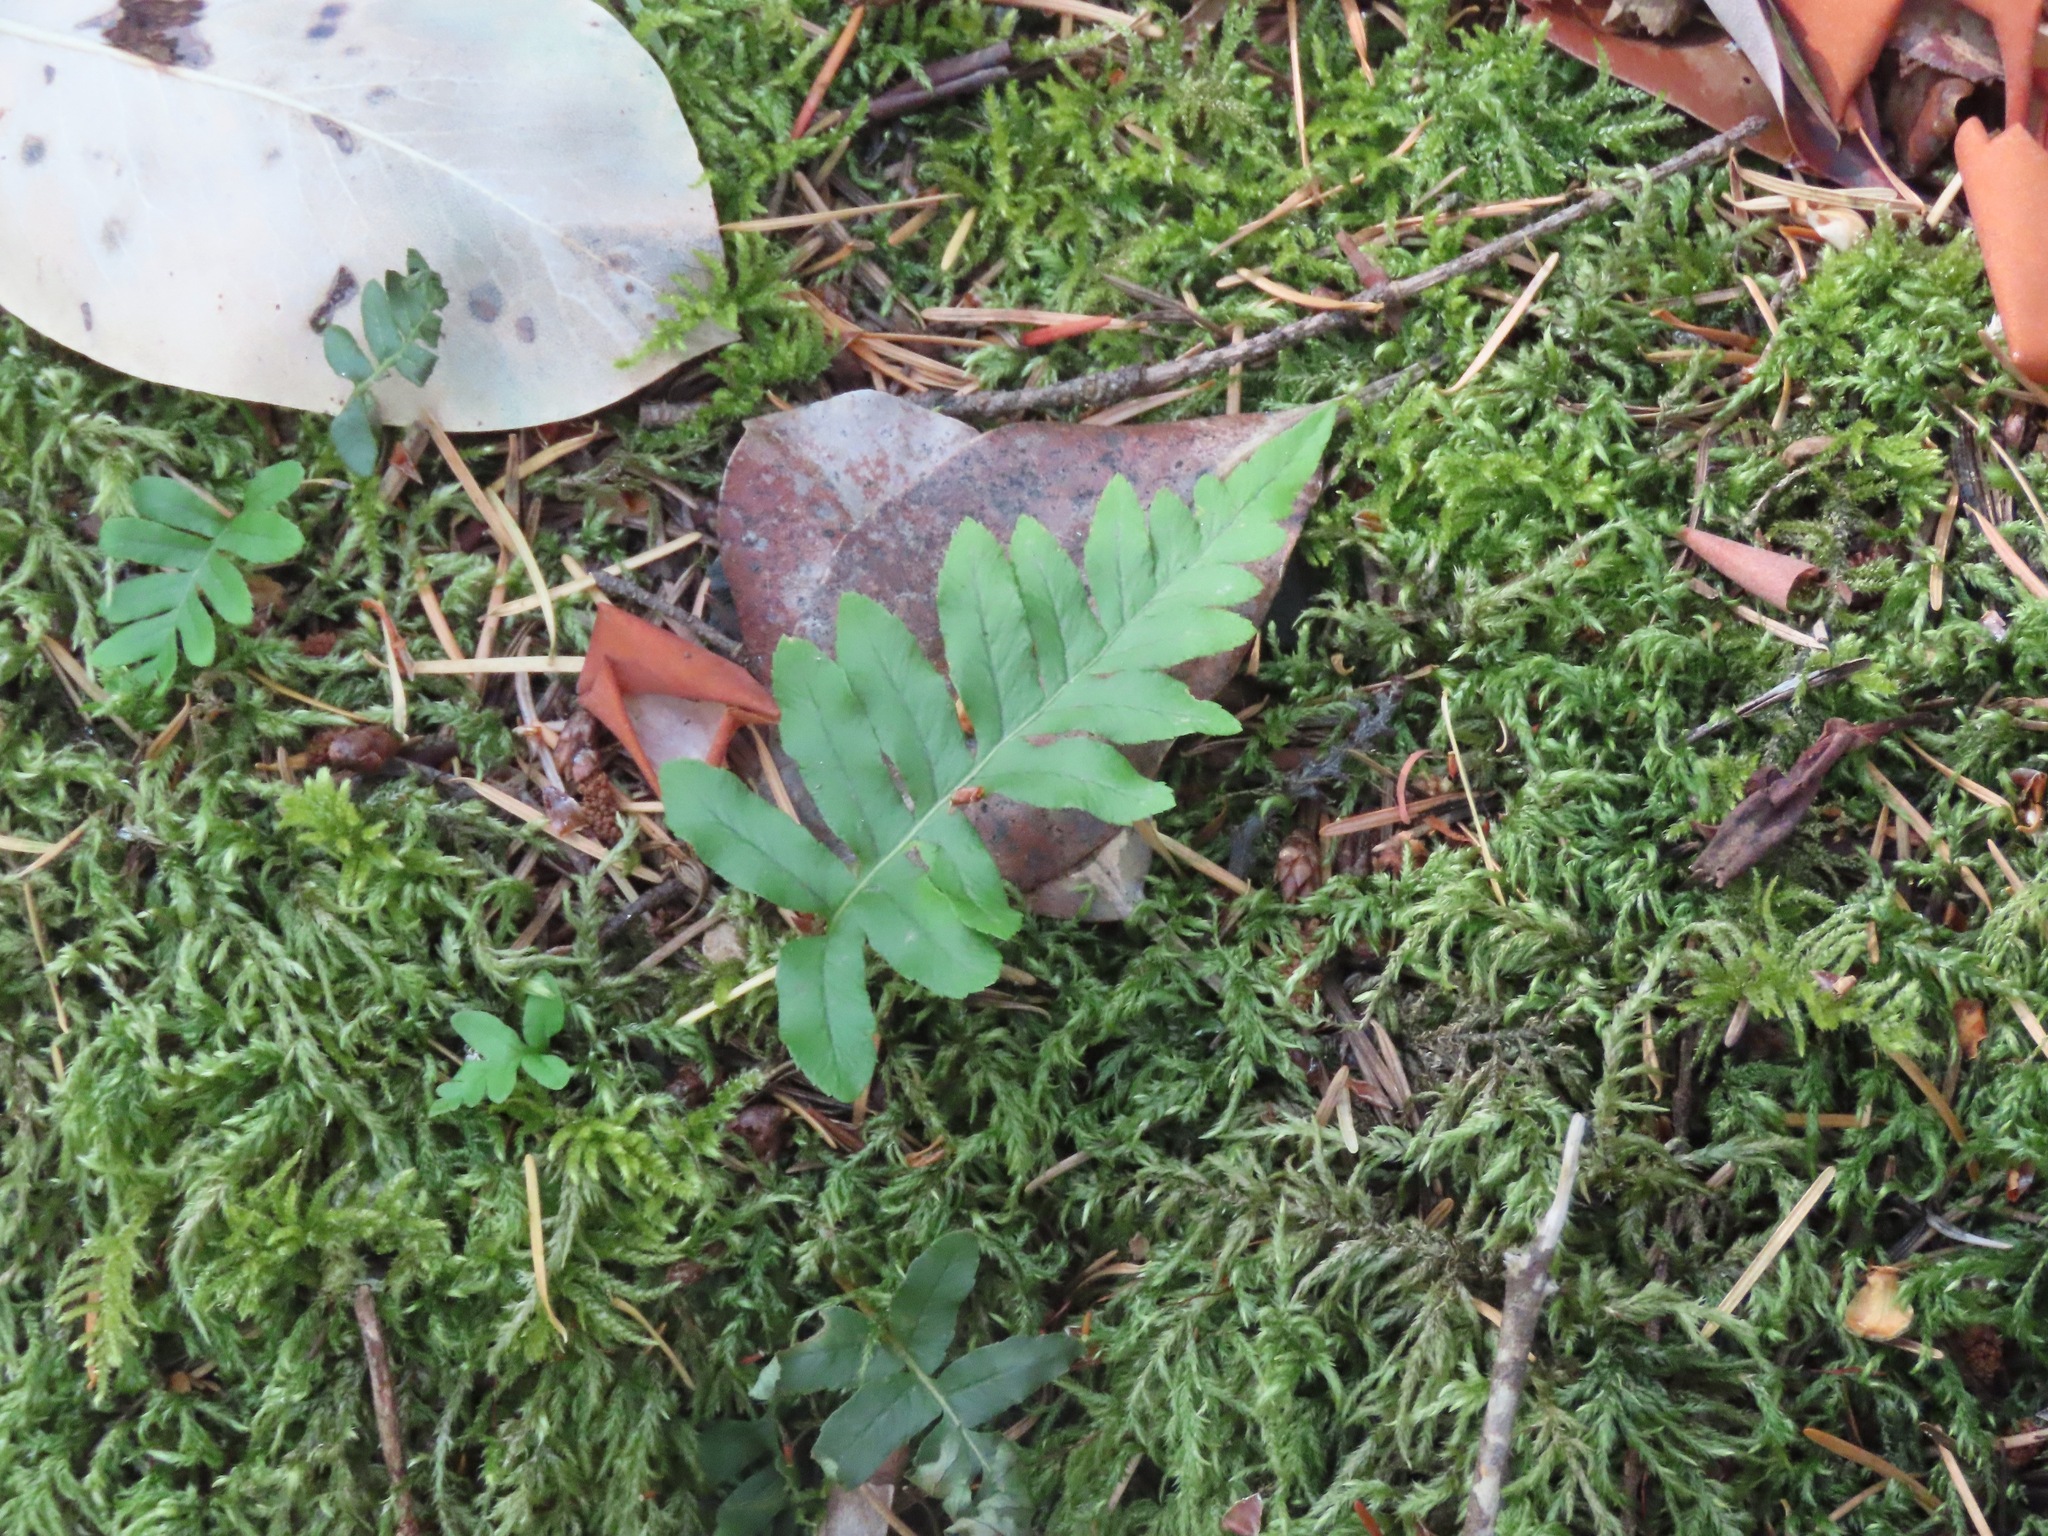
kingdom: Plantae
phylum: Tracheophyta
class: Polypodiopsida
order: Polypodiales
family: Polypodiaceae
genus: Polypodium
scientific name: Polypodium glycyrrhiza
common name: Licorice fern
